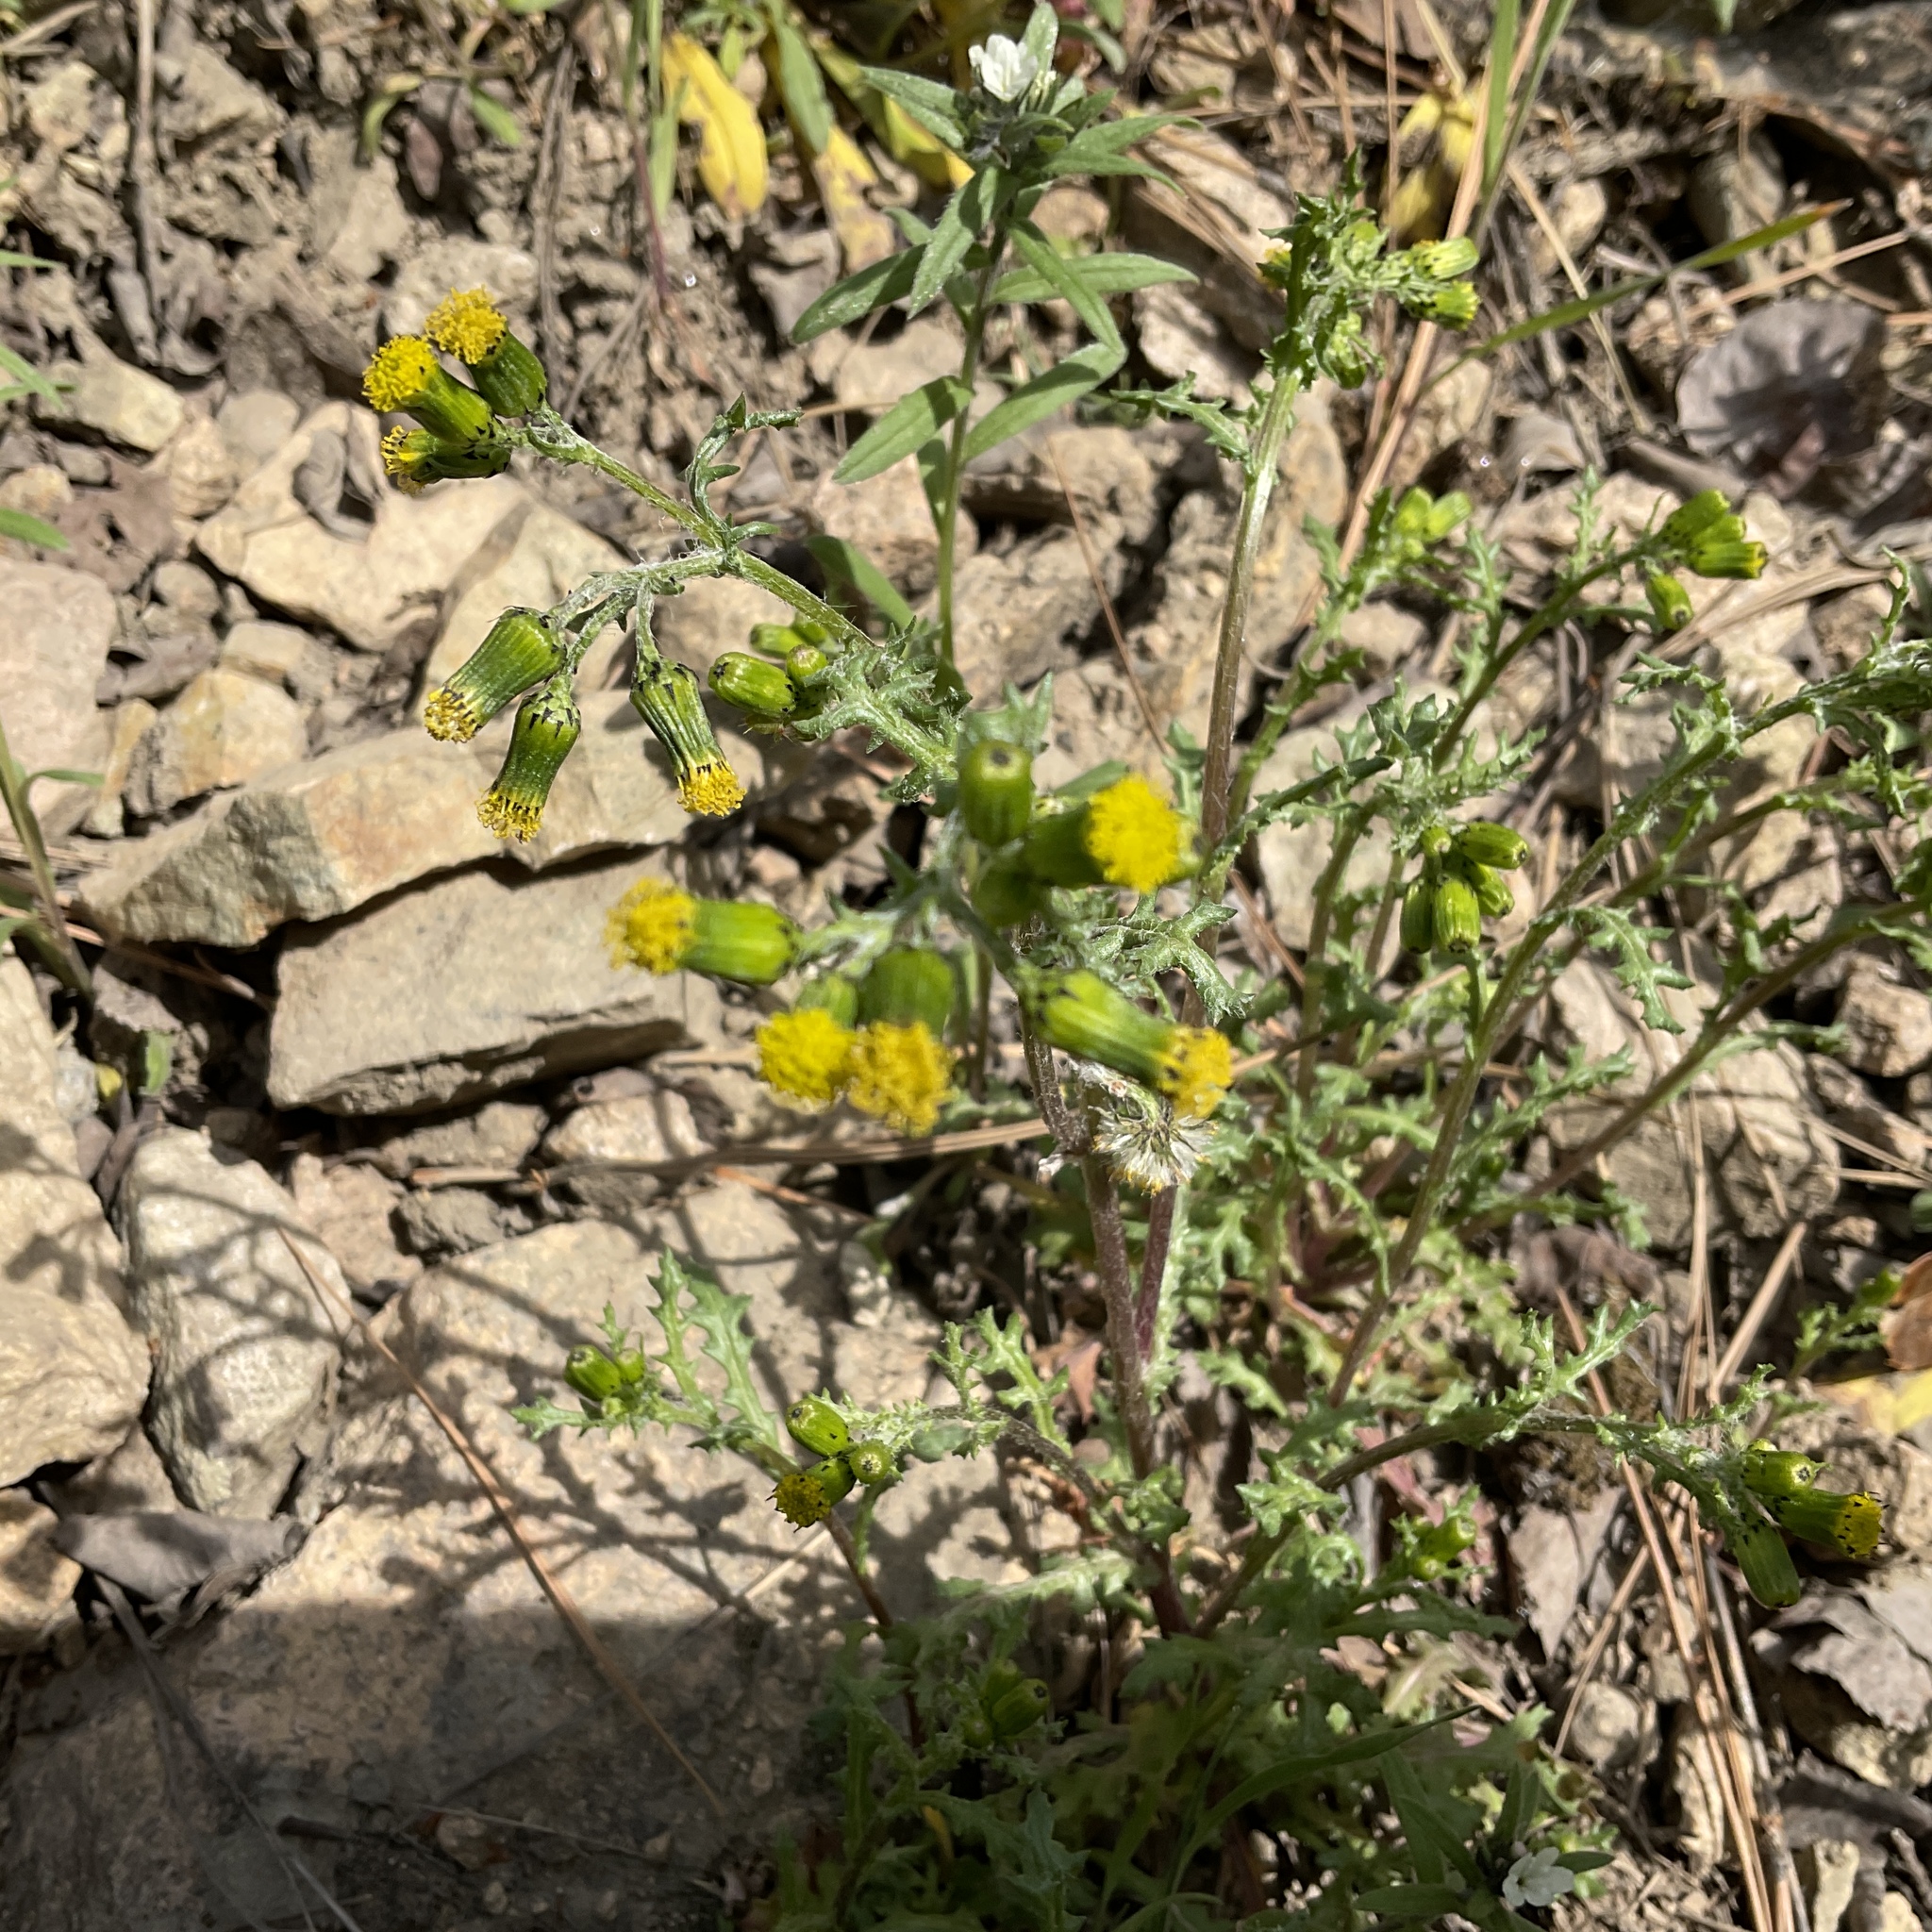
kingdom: Plantae
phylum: Tracheophyta
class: Magnoliopsida
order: Asterales
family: Asteraceae
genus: Senecio
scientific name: Senecio vulgaris
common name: Old-man-in-the-spring
